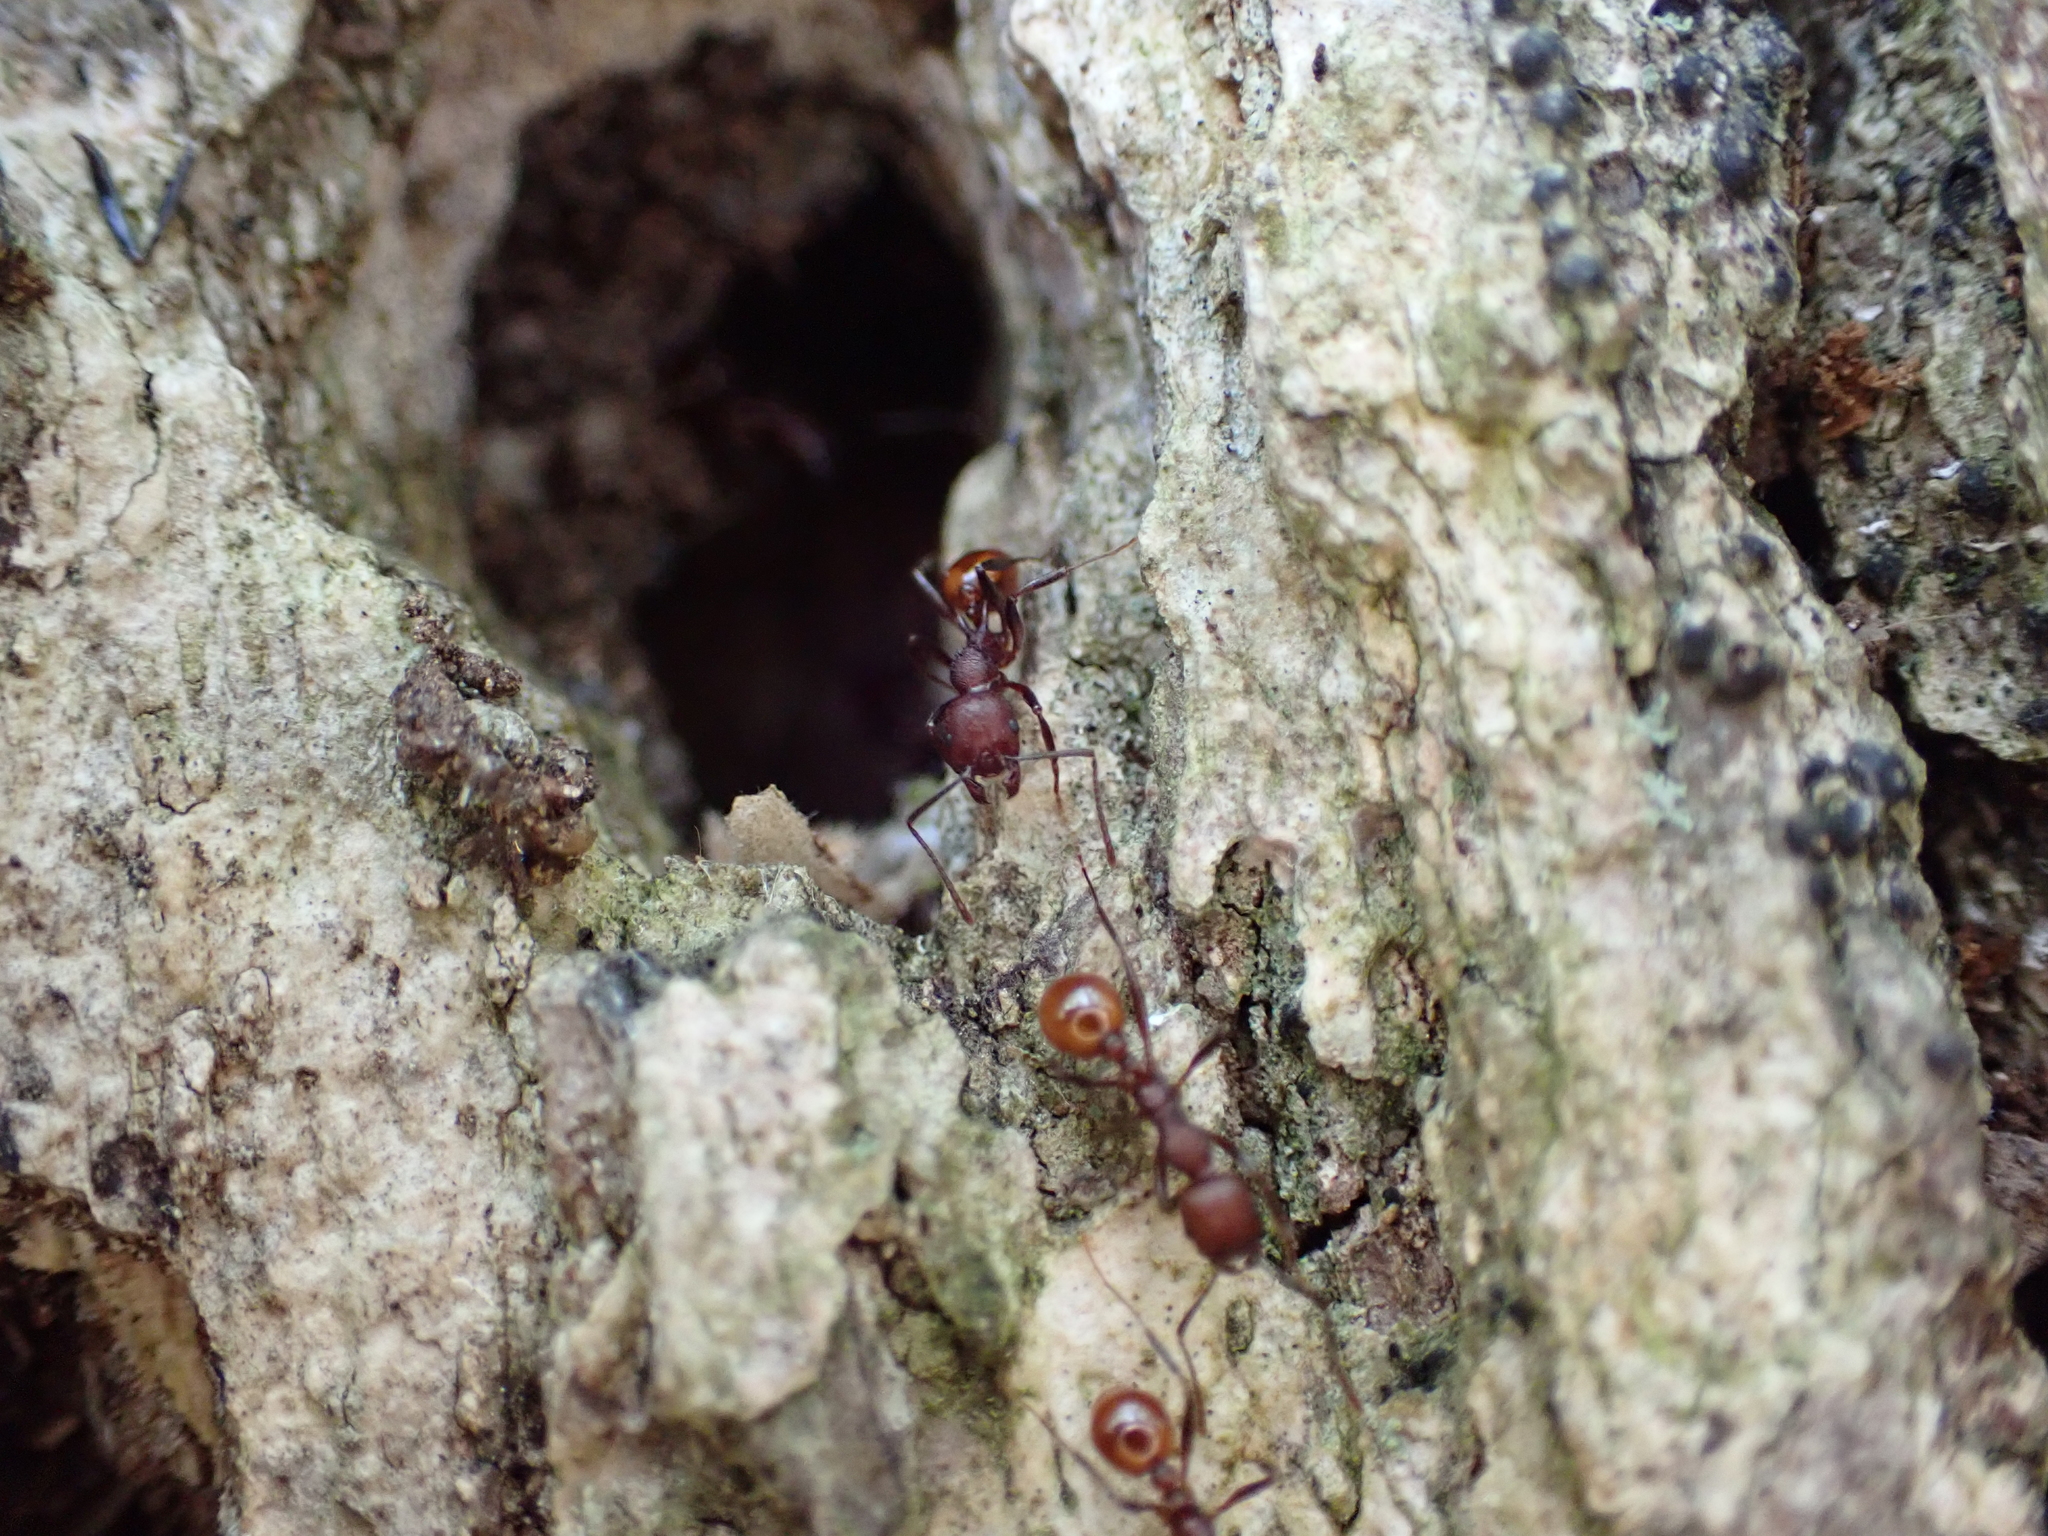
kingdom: Animalia
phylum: Arthropoda
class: Insecta
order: Hymenoptera
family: Formicidae
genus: Aphaenogaster
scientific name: Aphaenogaster tennesseensis
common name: Tennessee thread-waisted ant
